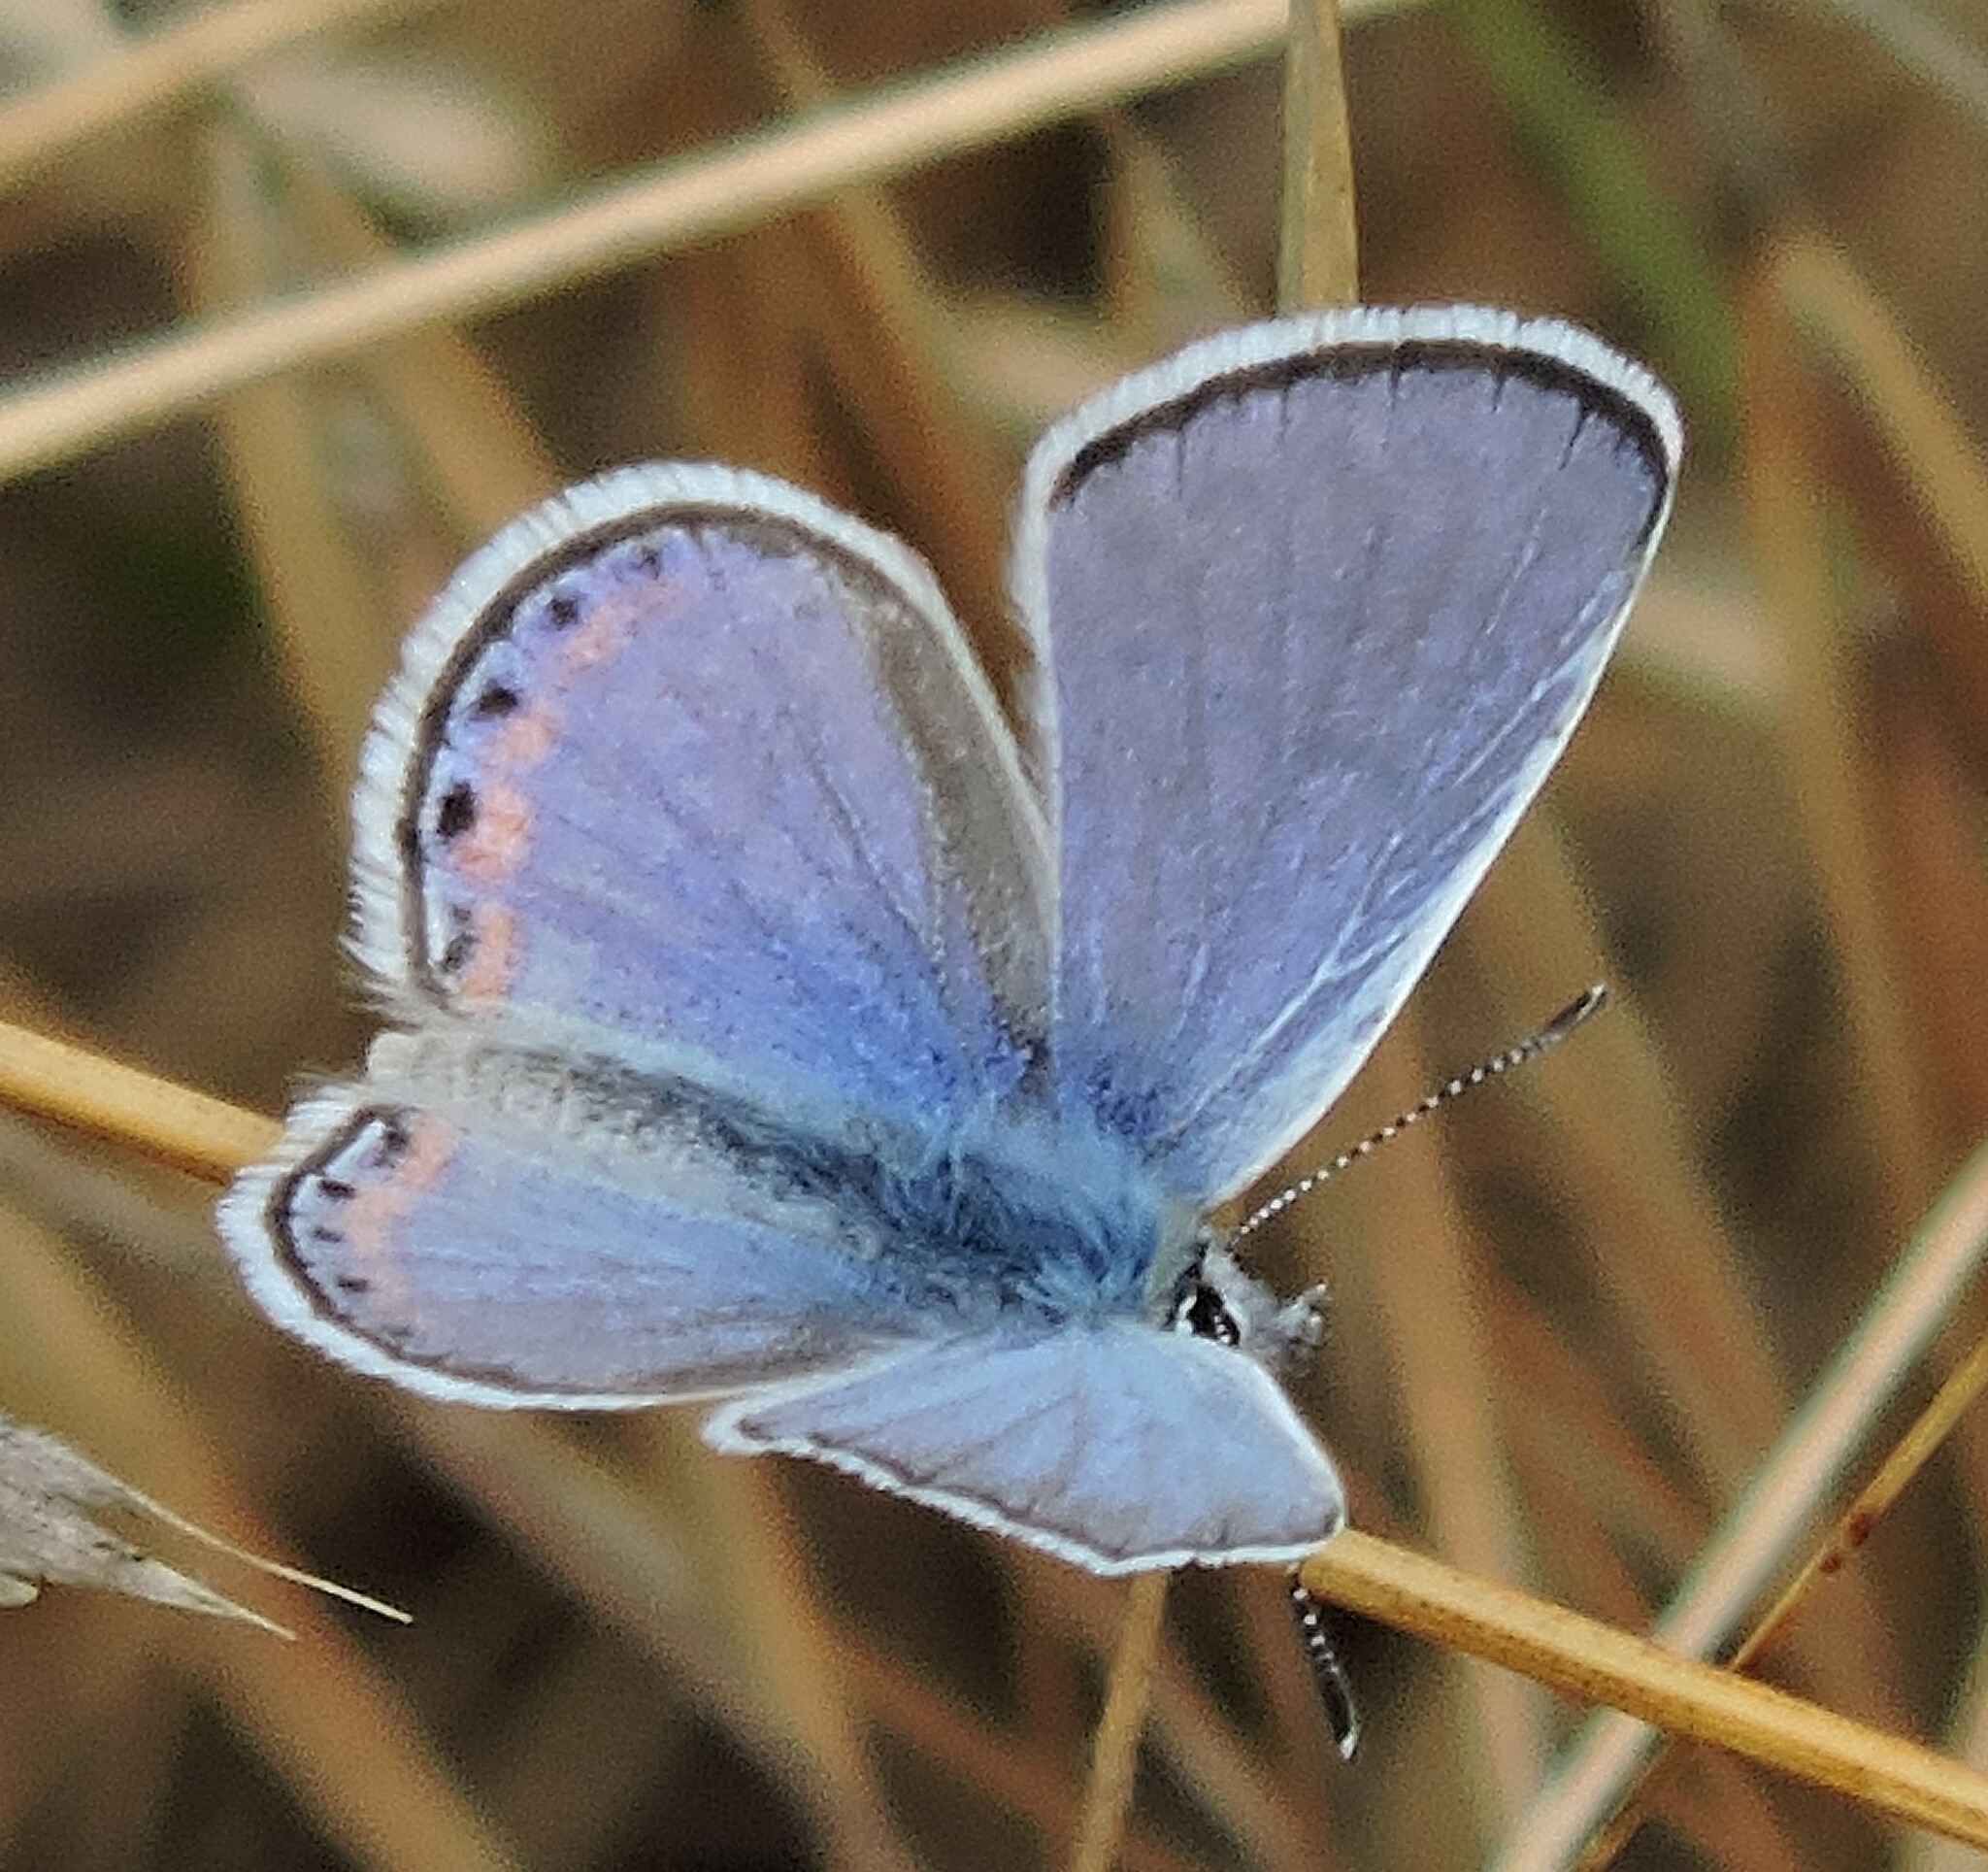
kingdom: Animalia
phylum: Arthropoda
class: Insecta
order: Lepidoptera
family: Lycaenidae
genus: Icaricia
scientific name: Icaricia acmon
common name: Acmon blue
